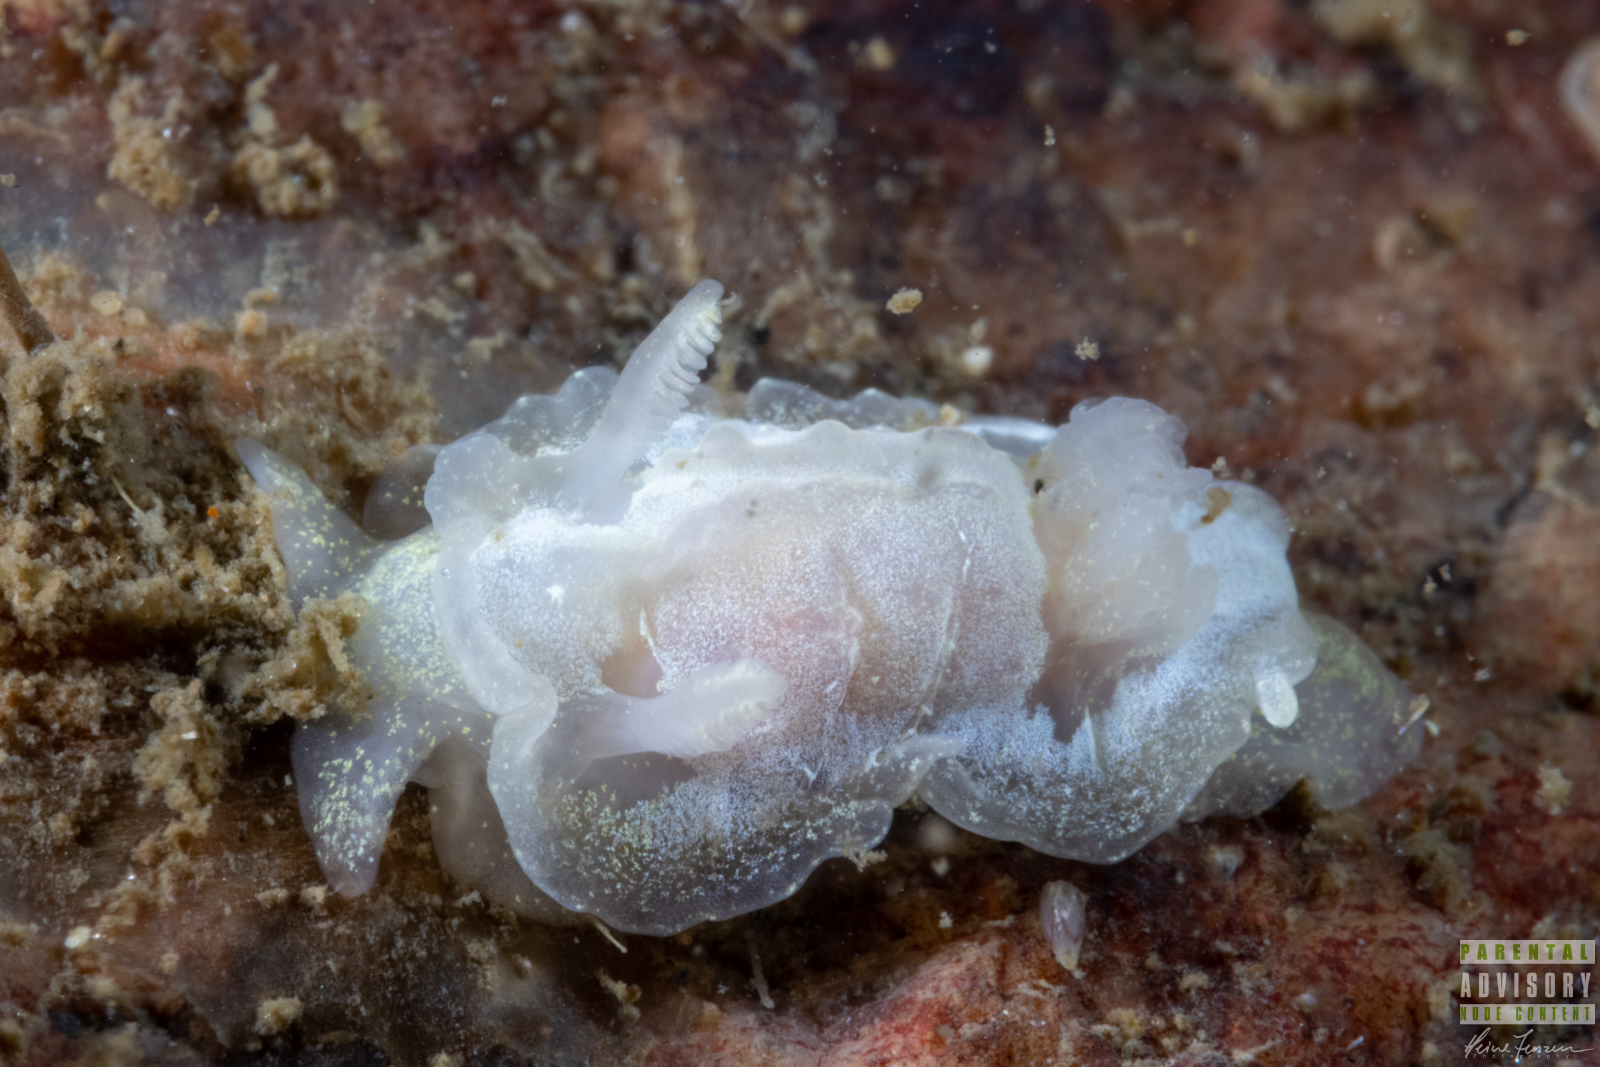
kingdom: Animalia
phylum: Mollusca
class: Gastropoda
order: Nudibranchia
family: Goniodorididae
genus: Okenia
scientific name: Okenia
